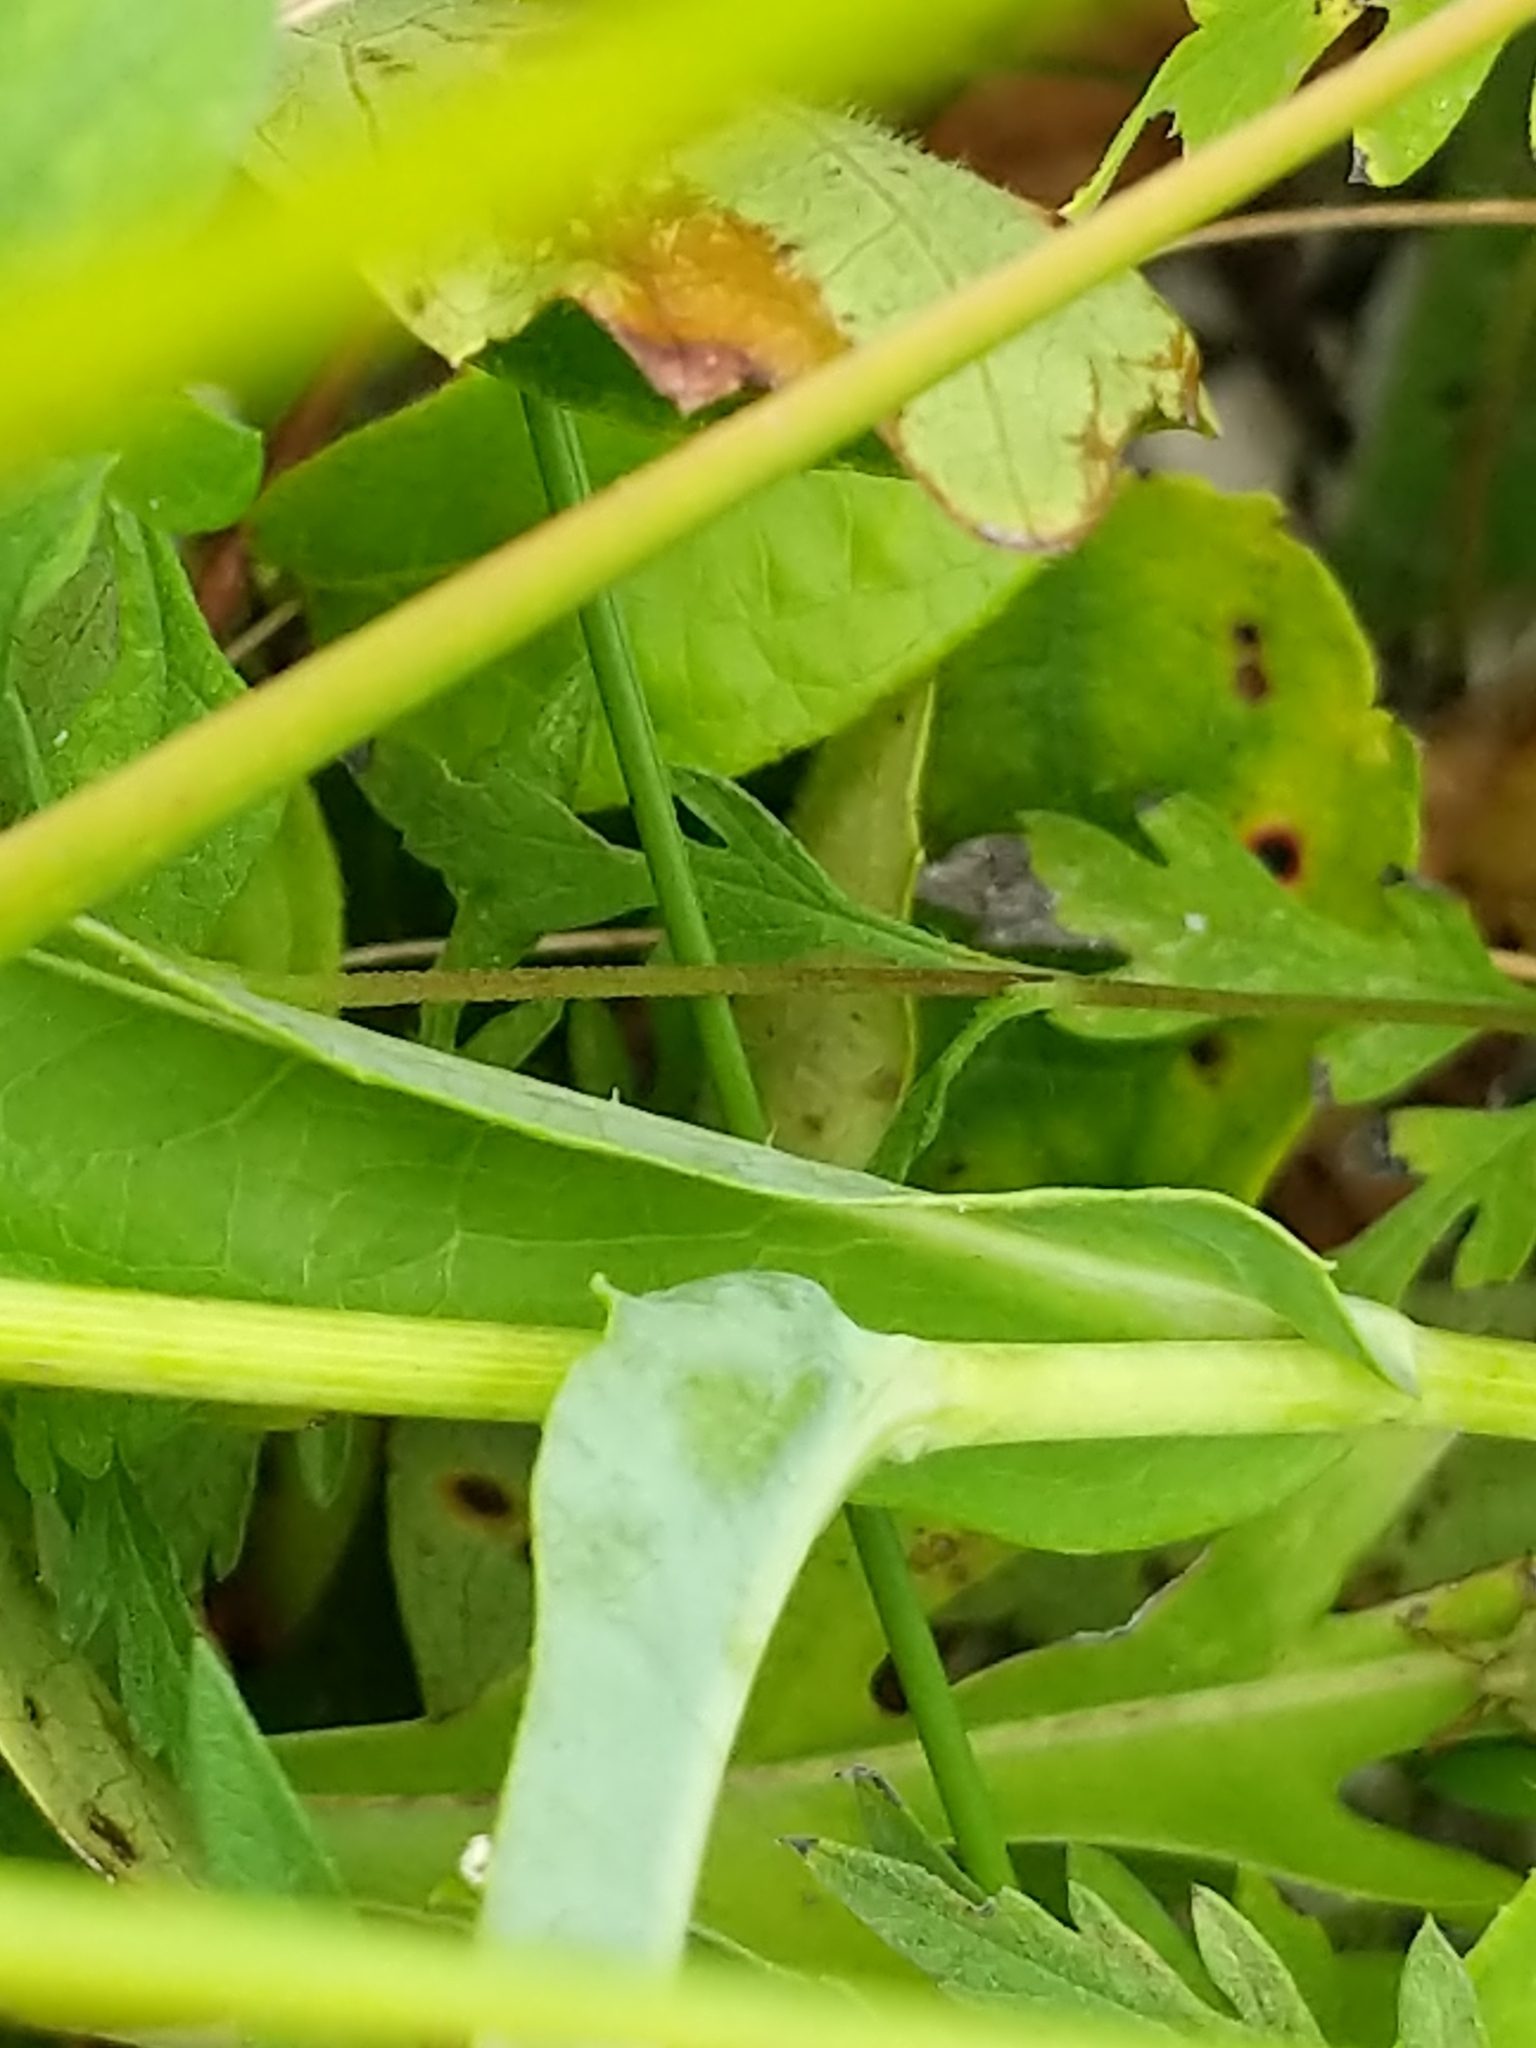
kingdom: Plantae
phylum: Tracheophyta
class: Magnoliopsida
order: Asterales
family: Asteraceae
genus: Lactuca
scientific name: Lactuca serriola
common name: Prickly lettuce
